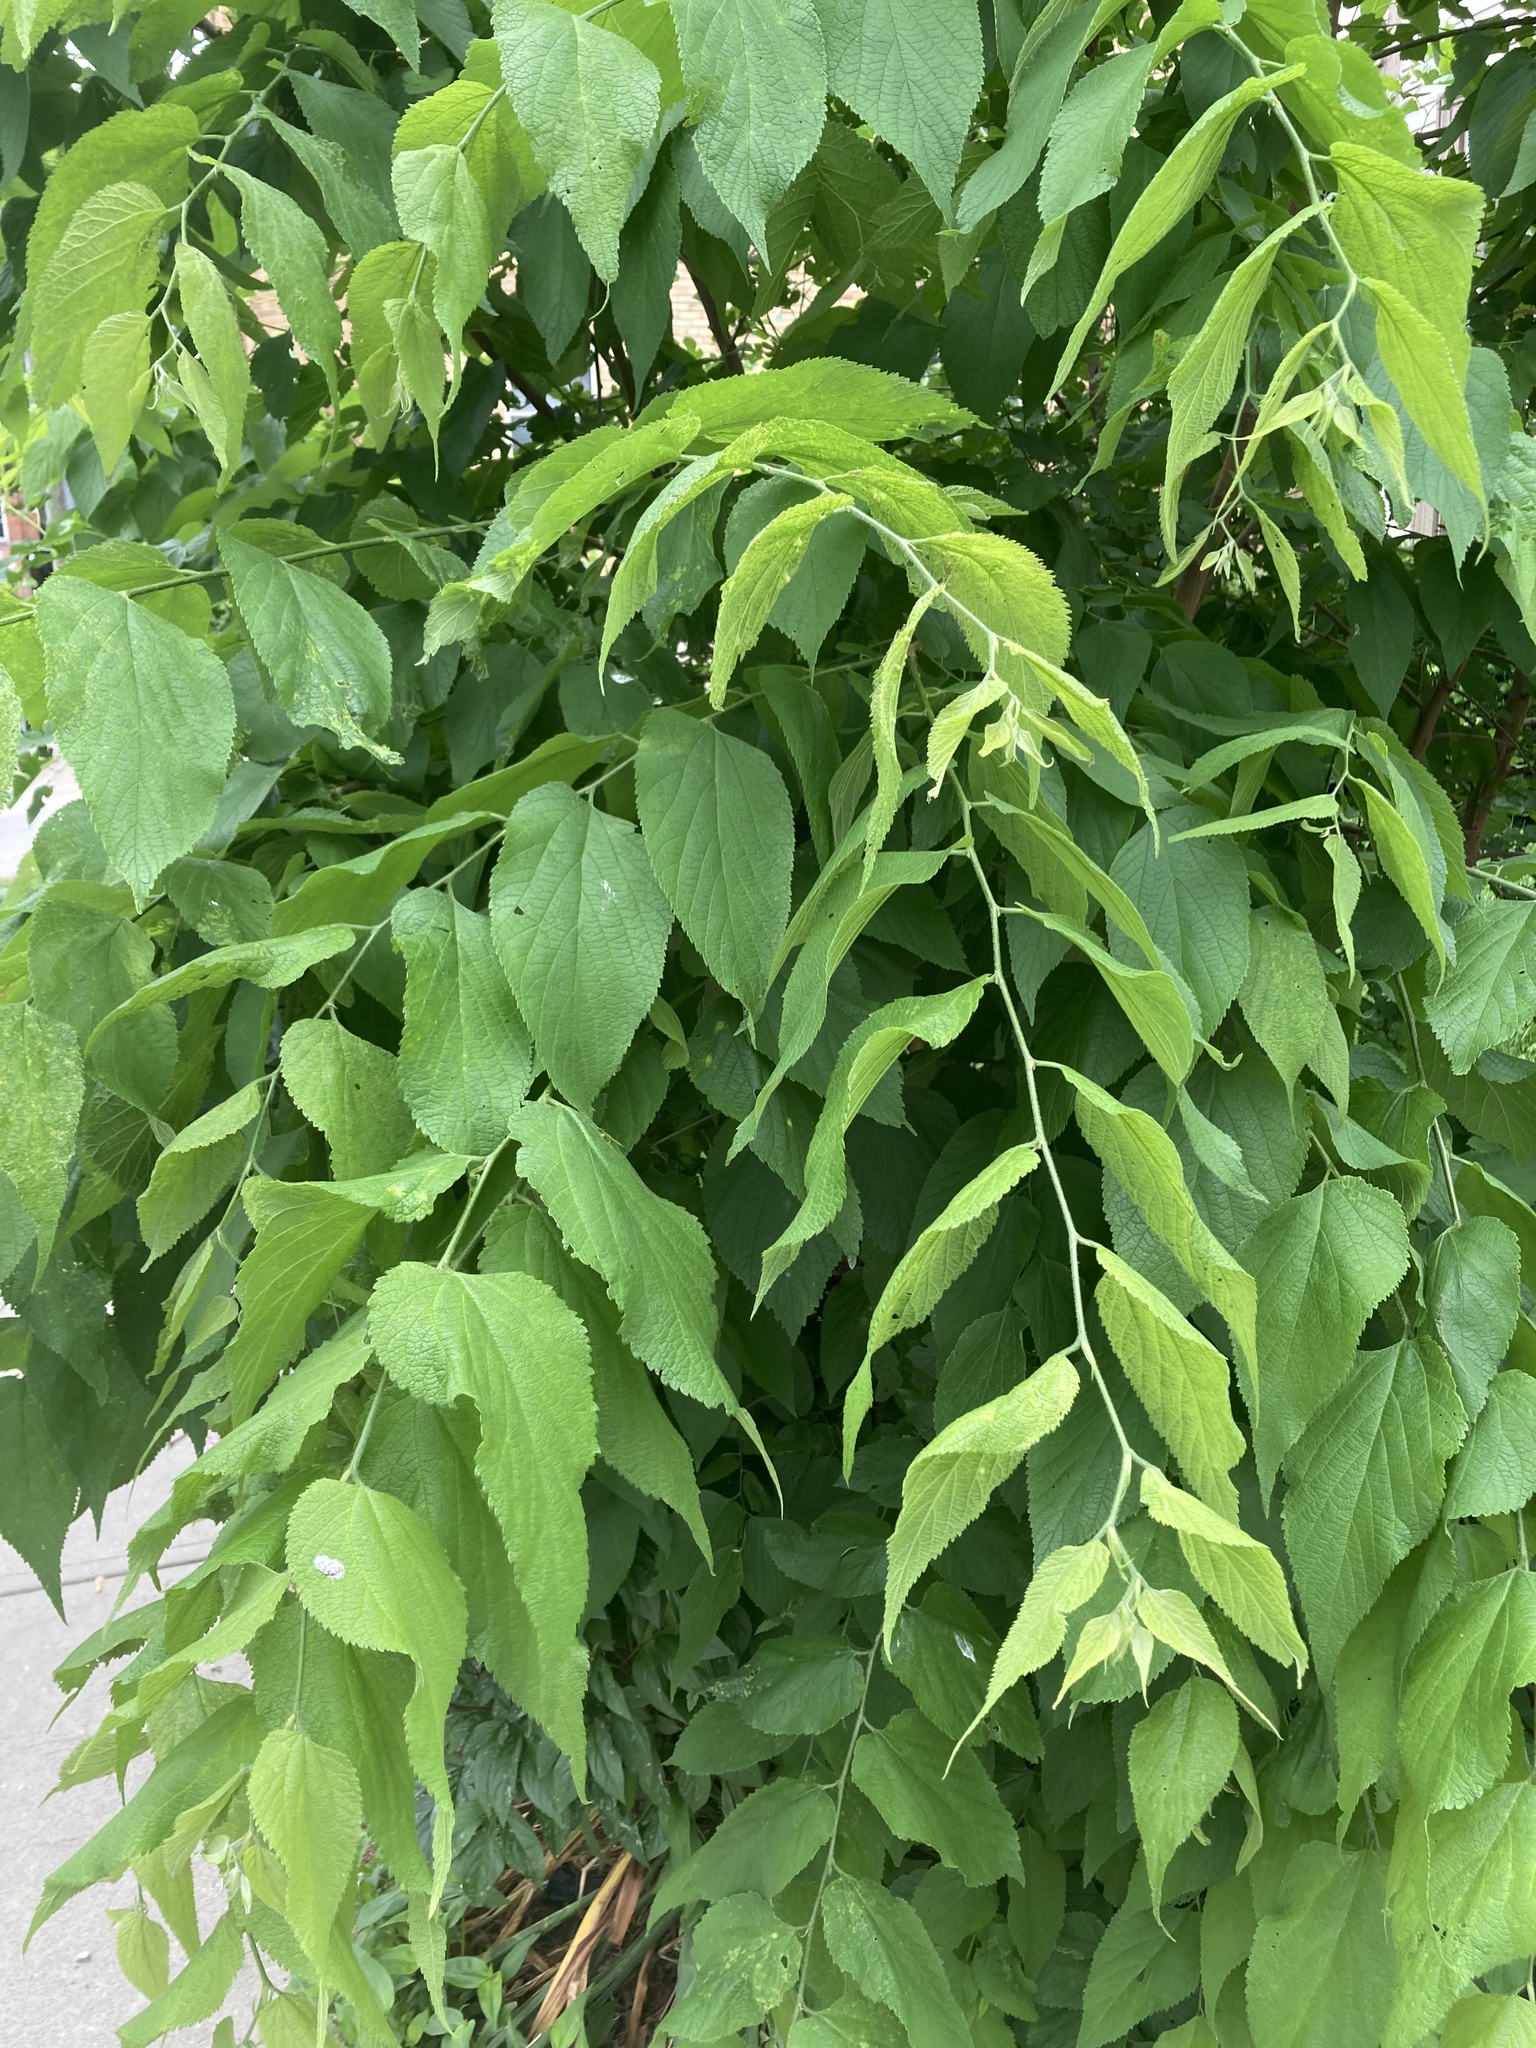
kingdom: Plantae
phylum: Tracheophyta
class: Magnoliopsida
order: Rosales
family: Cannabaceae
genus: Celtis
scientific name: Celtis occidentalis
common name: Common hackberry
